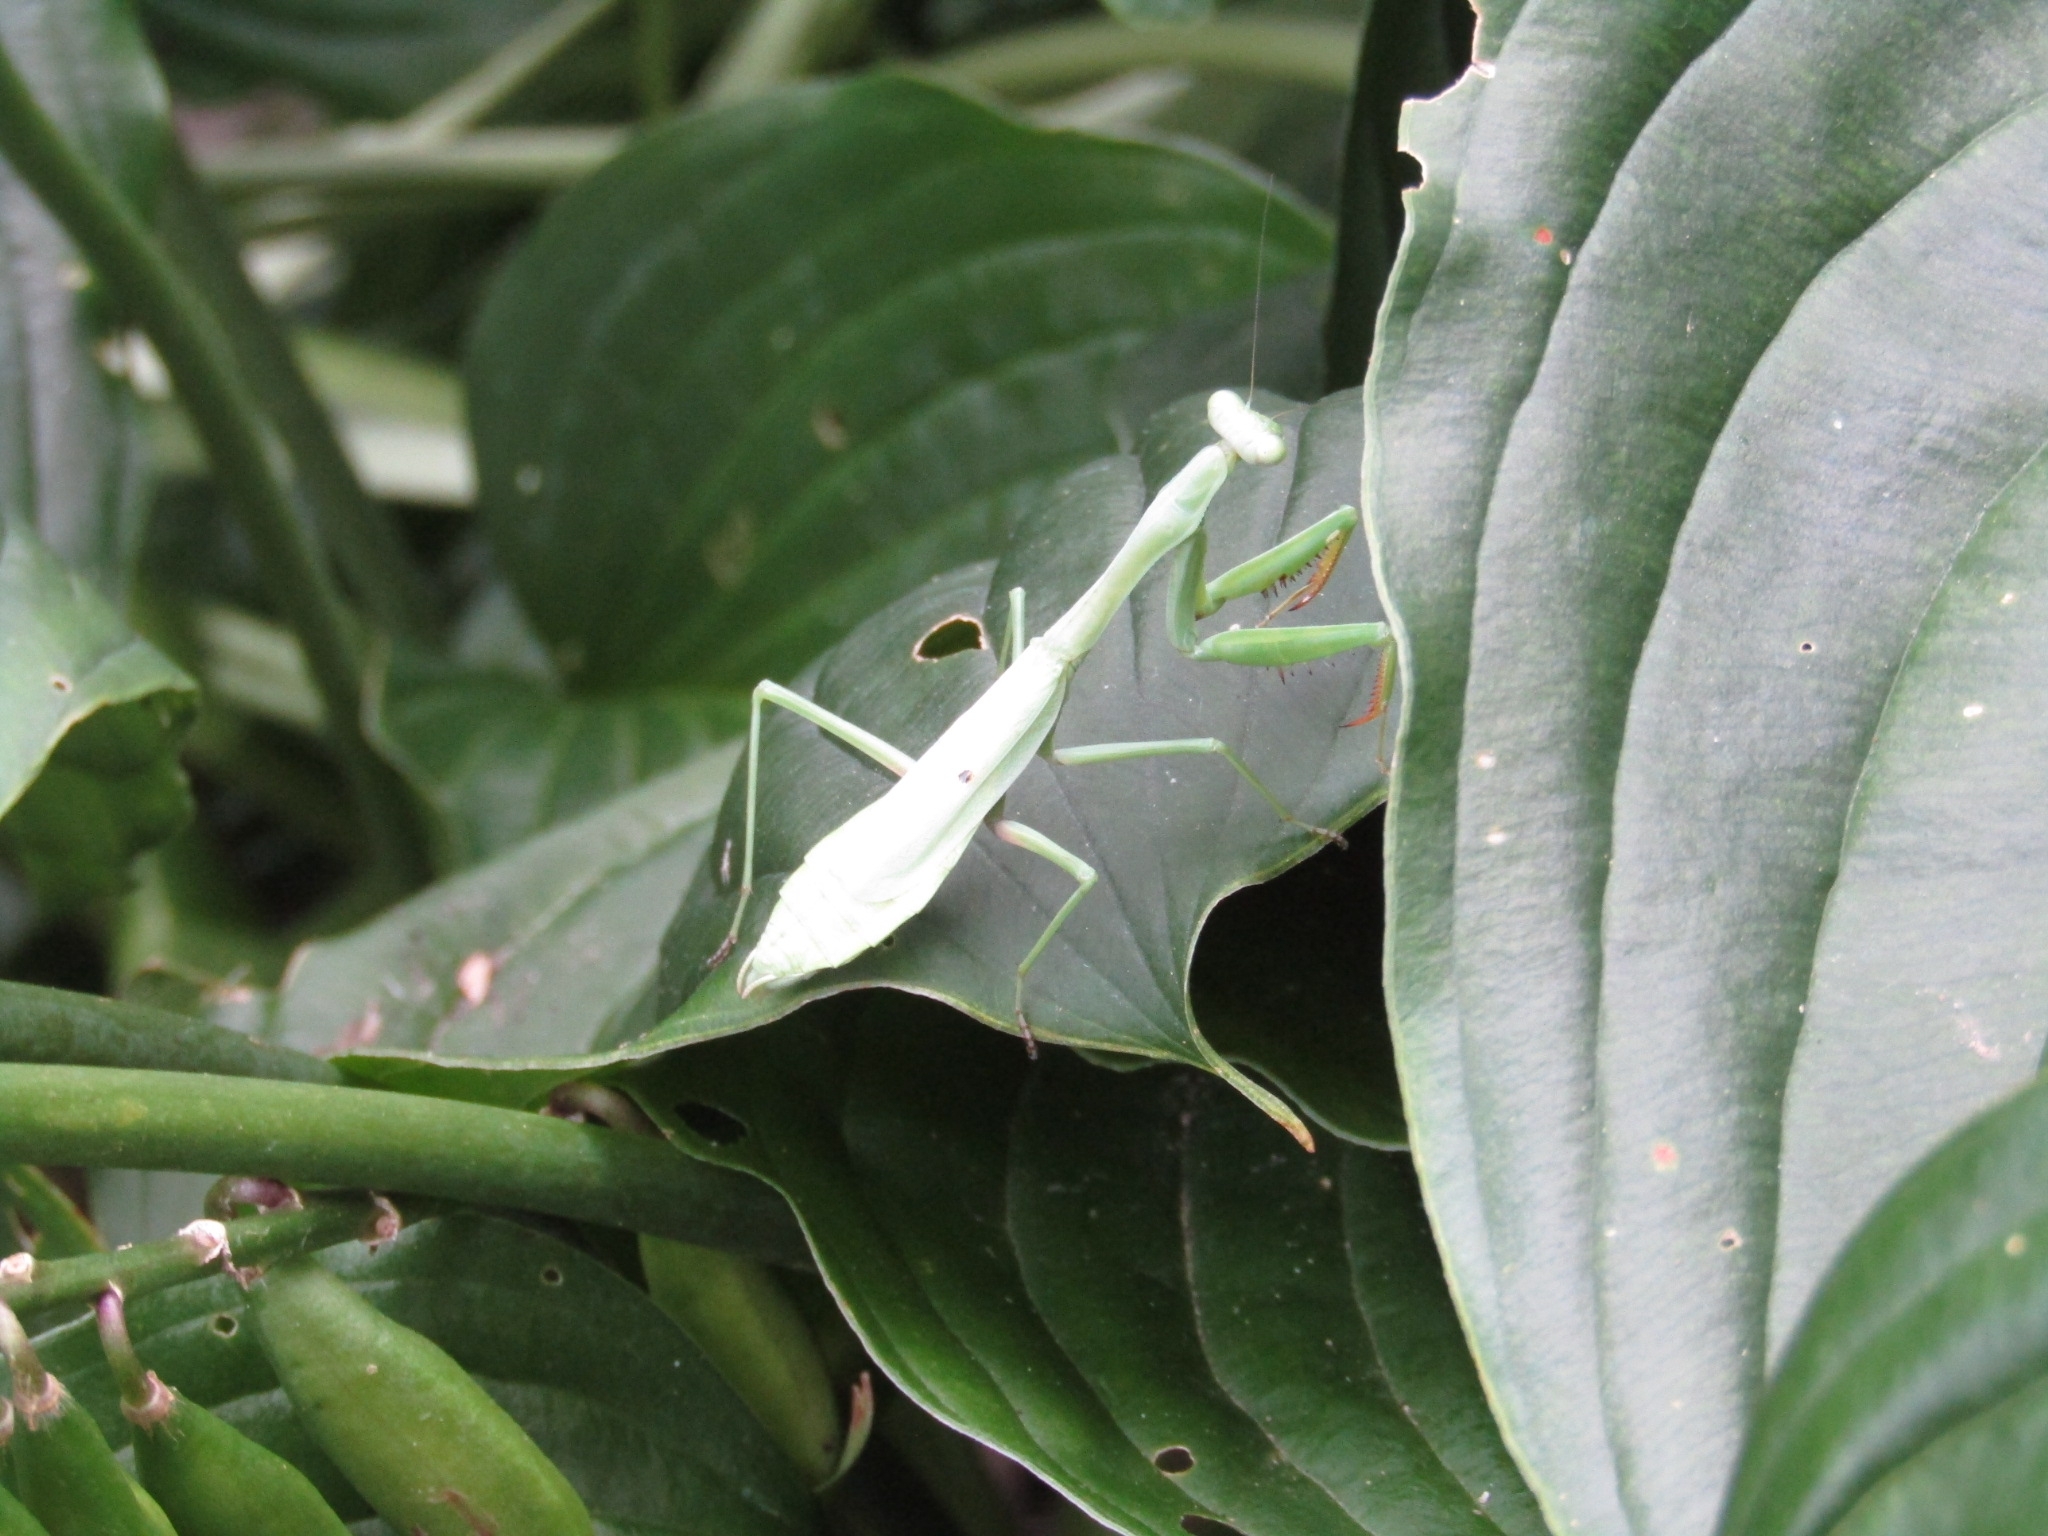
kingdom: Animalia
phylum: Arthropoda
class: Insecta
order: Mantodea
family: Mantidae
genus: Stagmomantis
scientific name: Stagmomantis carolina
